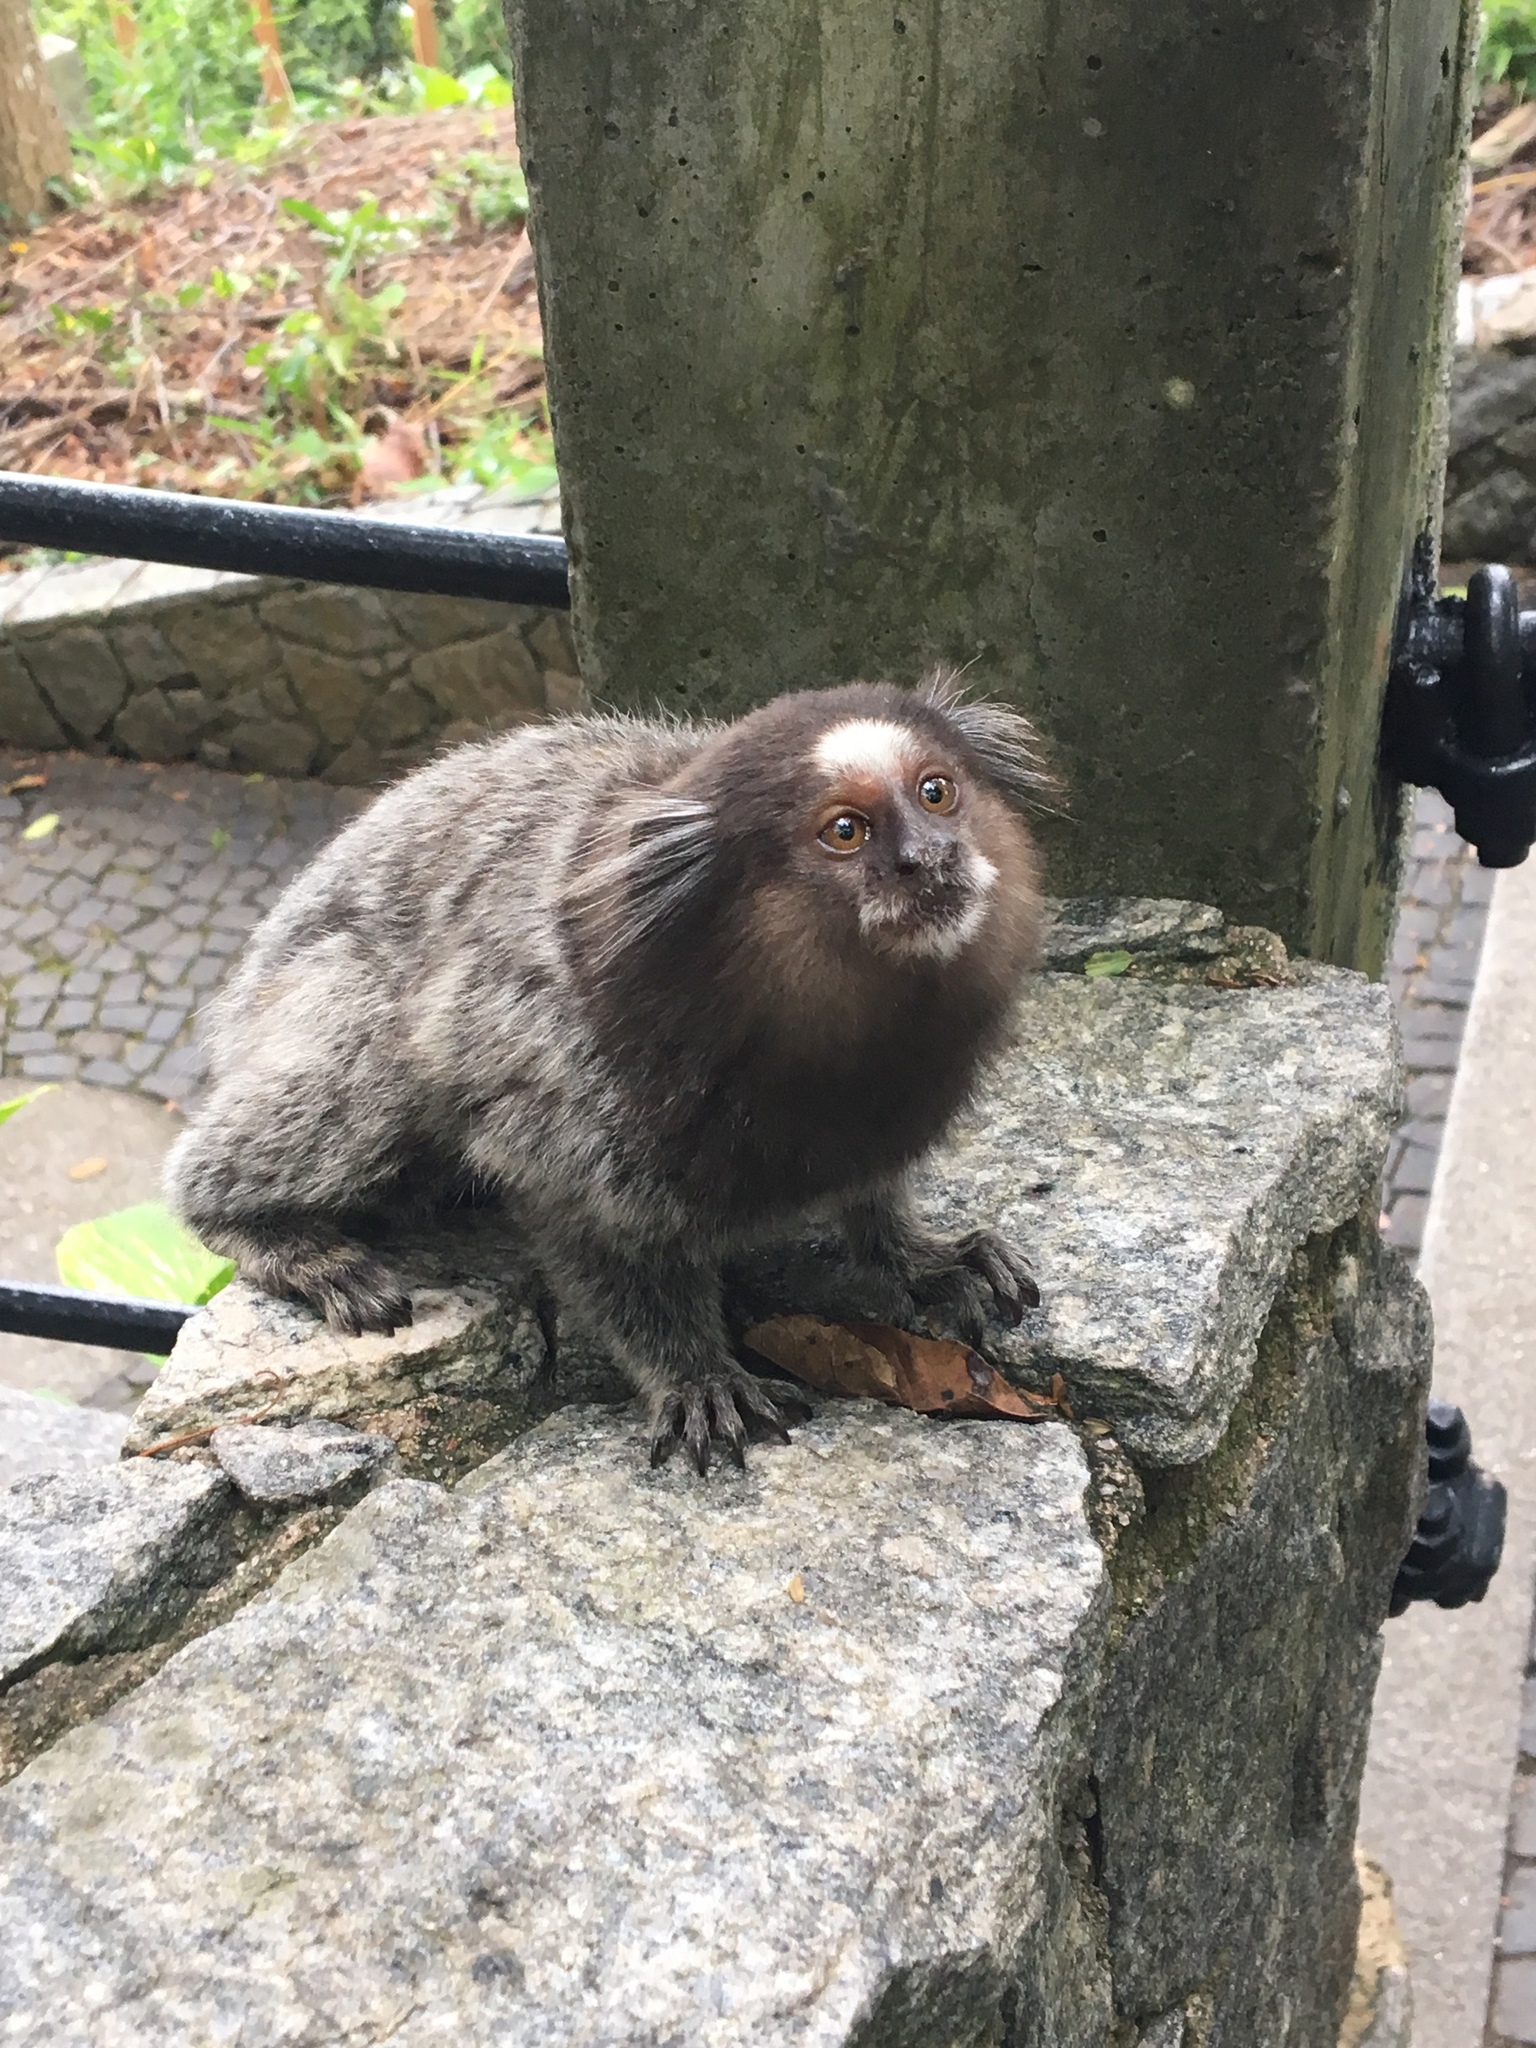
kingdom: Animalia
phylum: Chordata
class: Mammalia
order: Primates
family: Callitrichidae
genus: Callithrix
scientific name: Callithrix penicillata
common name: Black-tufted marmoset
